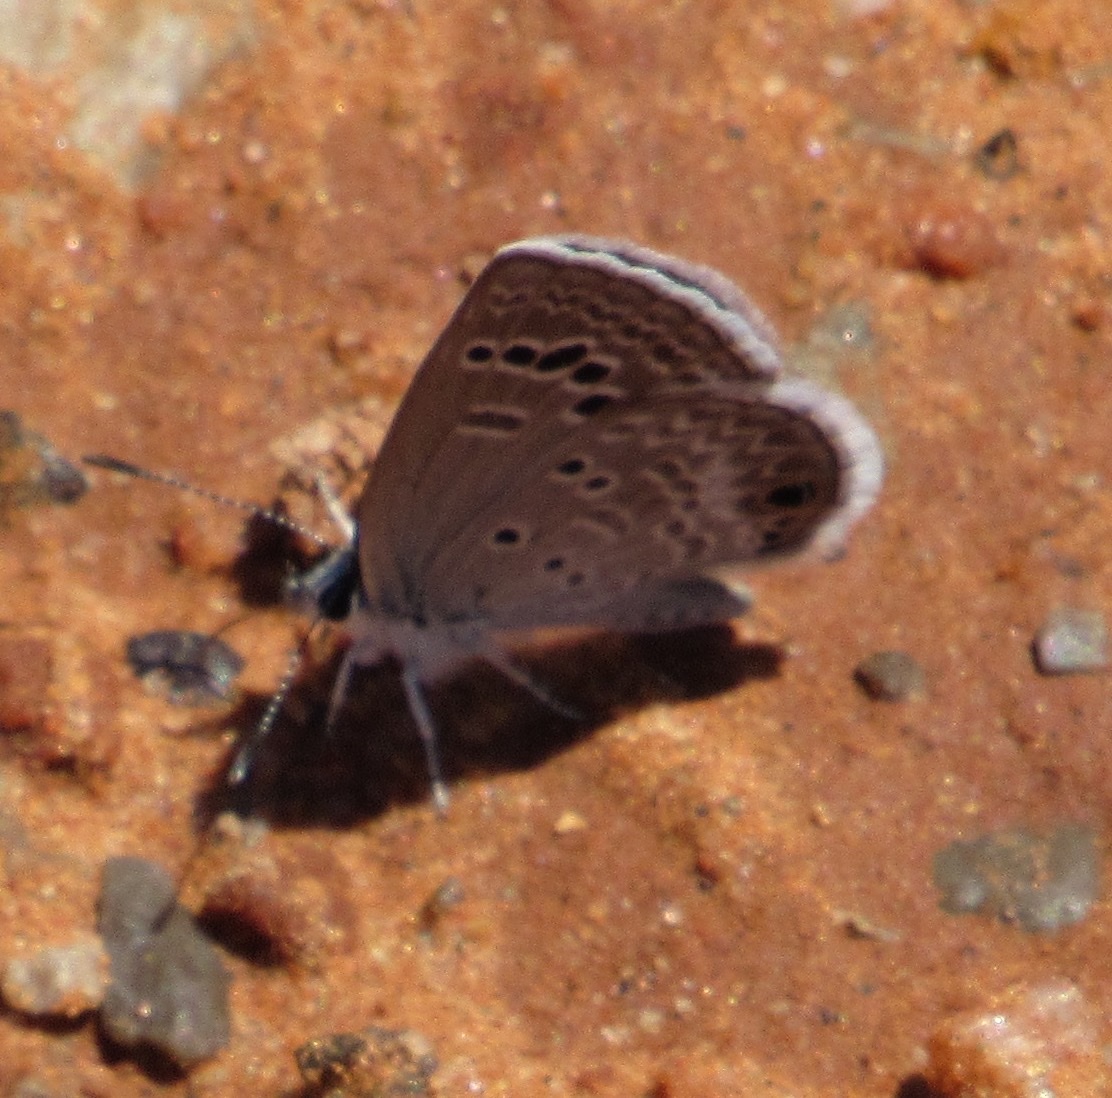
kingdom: Animalia
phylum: Arthropoda
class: Insecta
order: Lepidoptera
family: Lycaenidae
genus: Echinargus
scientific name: Echinargus isola
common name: Reakirt's blue
